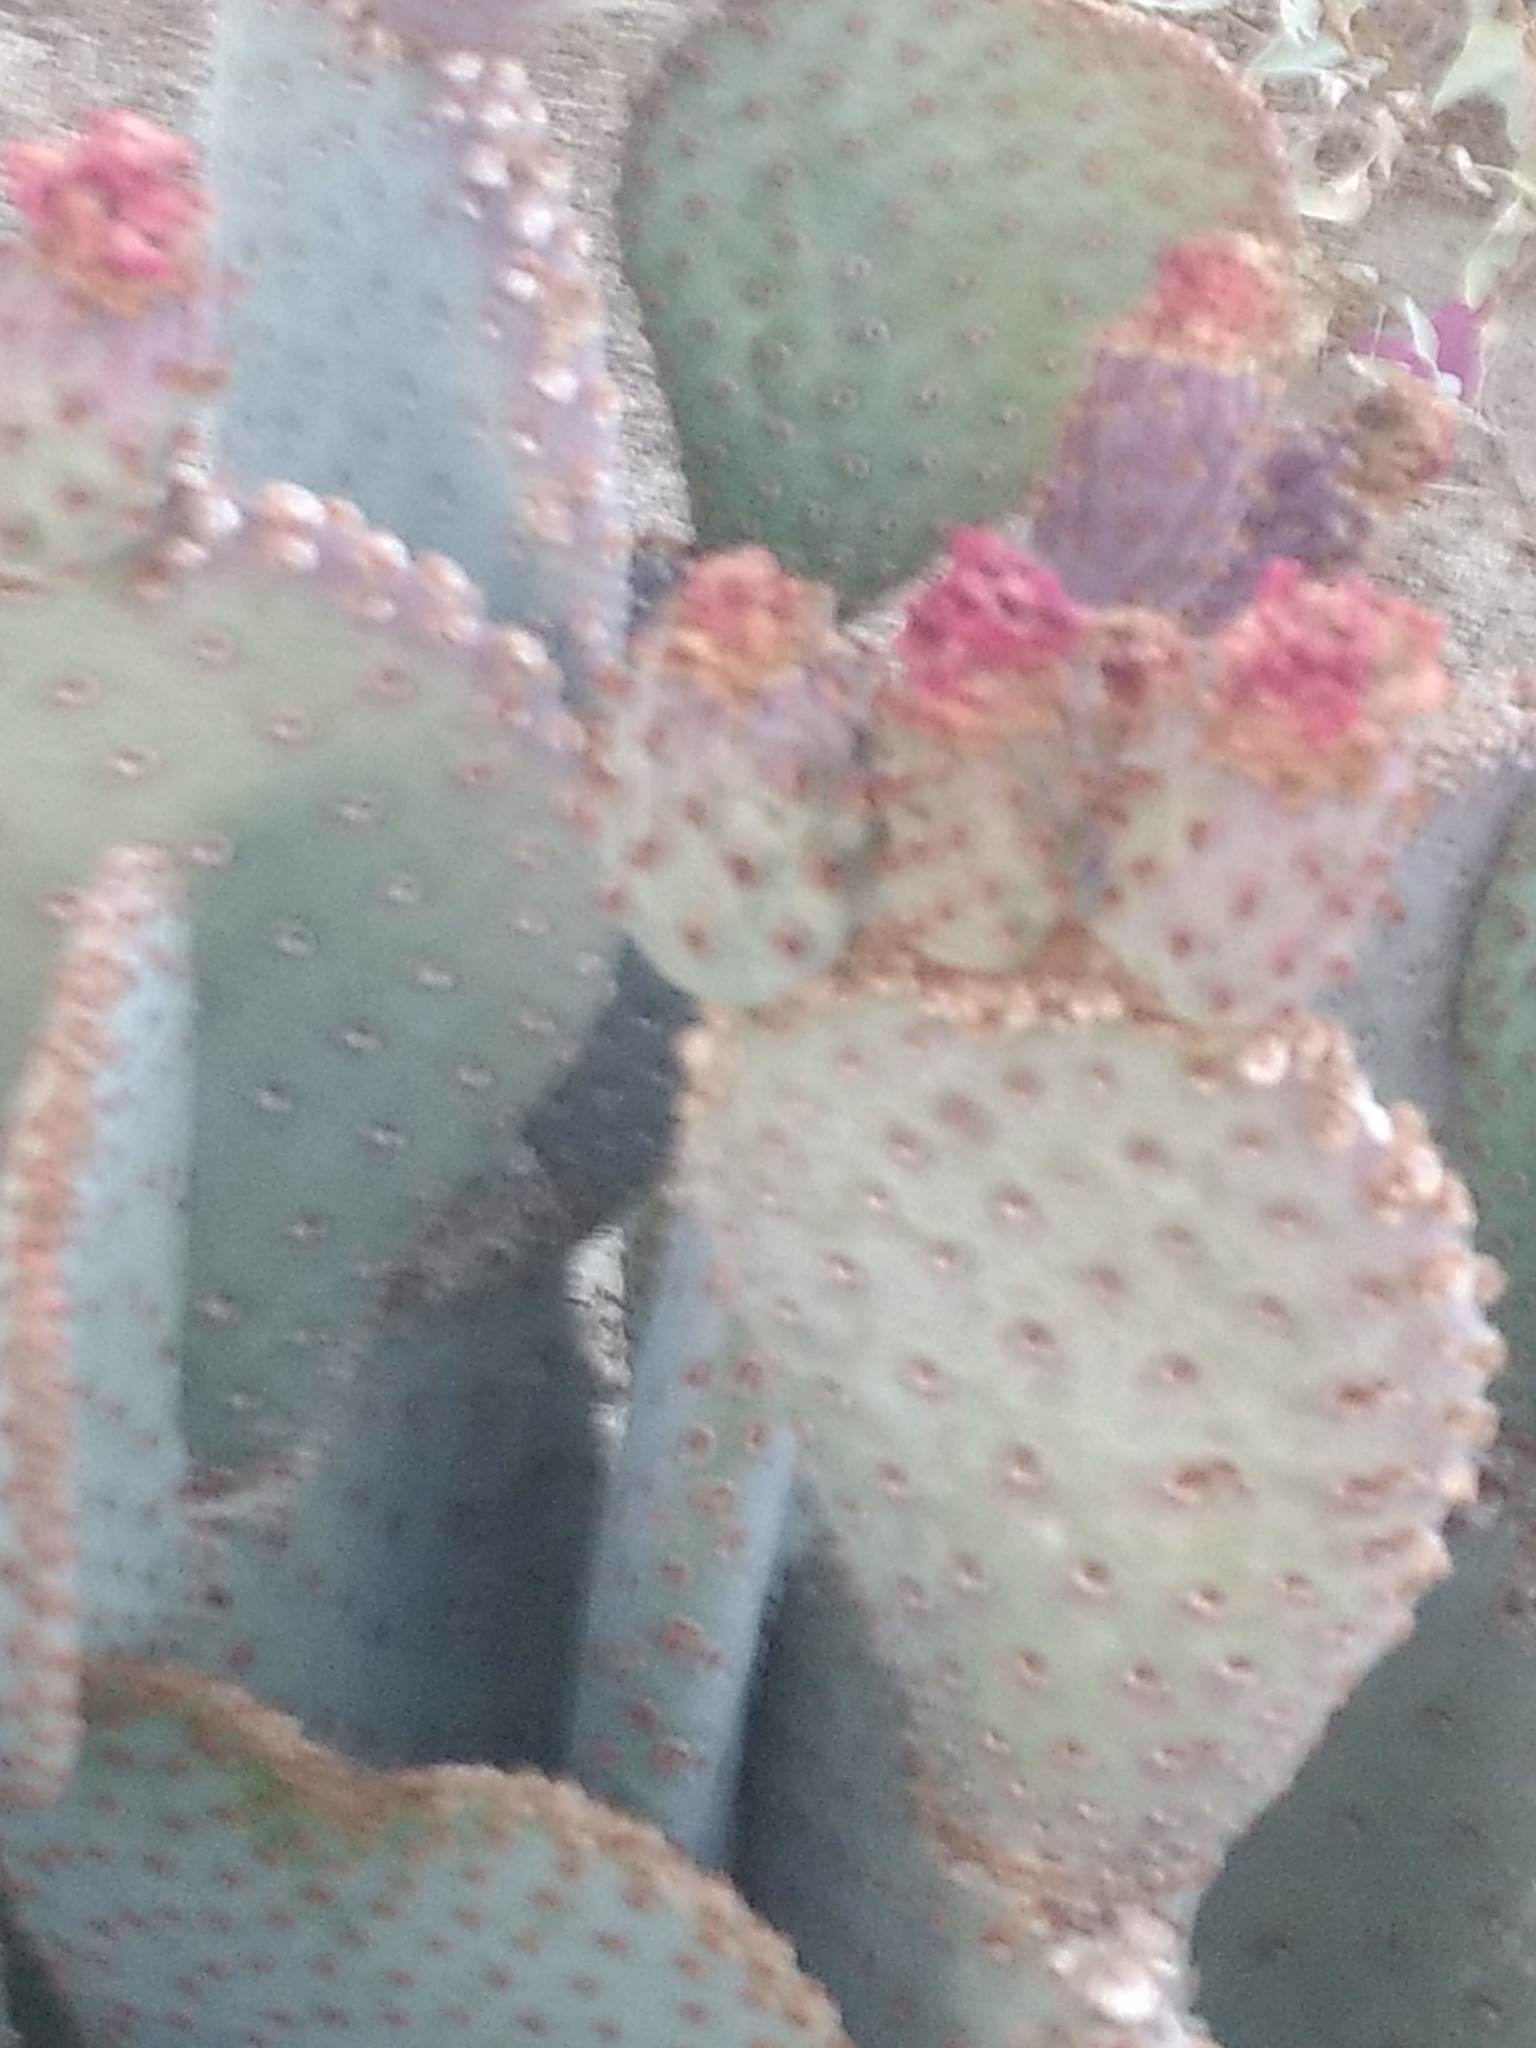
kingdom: Plantae
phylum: Tracheophyta
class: Magnoliopsida
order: Caryophyllales
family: Cactaceae
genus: Opuntia
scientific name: Opuntia basilaris
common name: Beavertail prickly-pear
